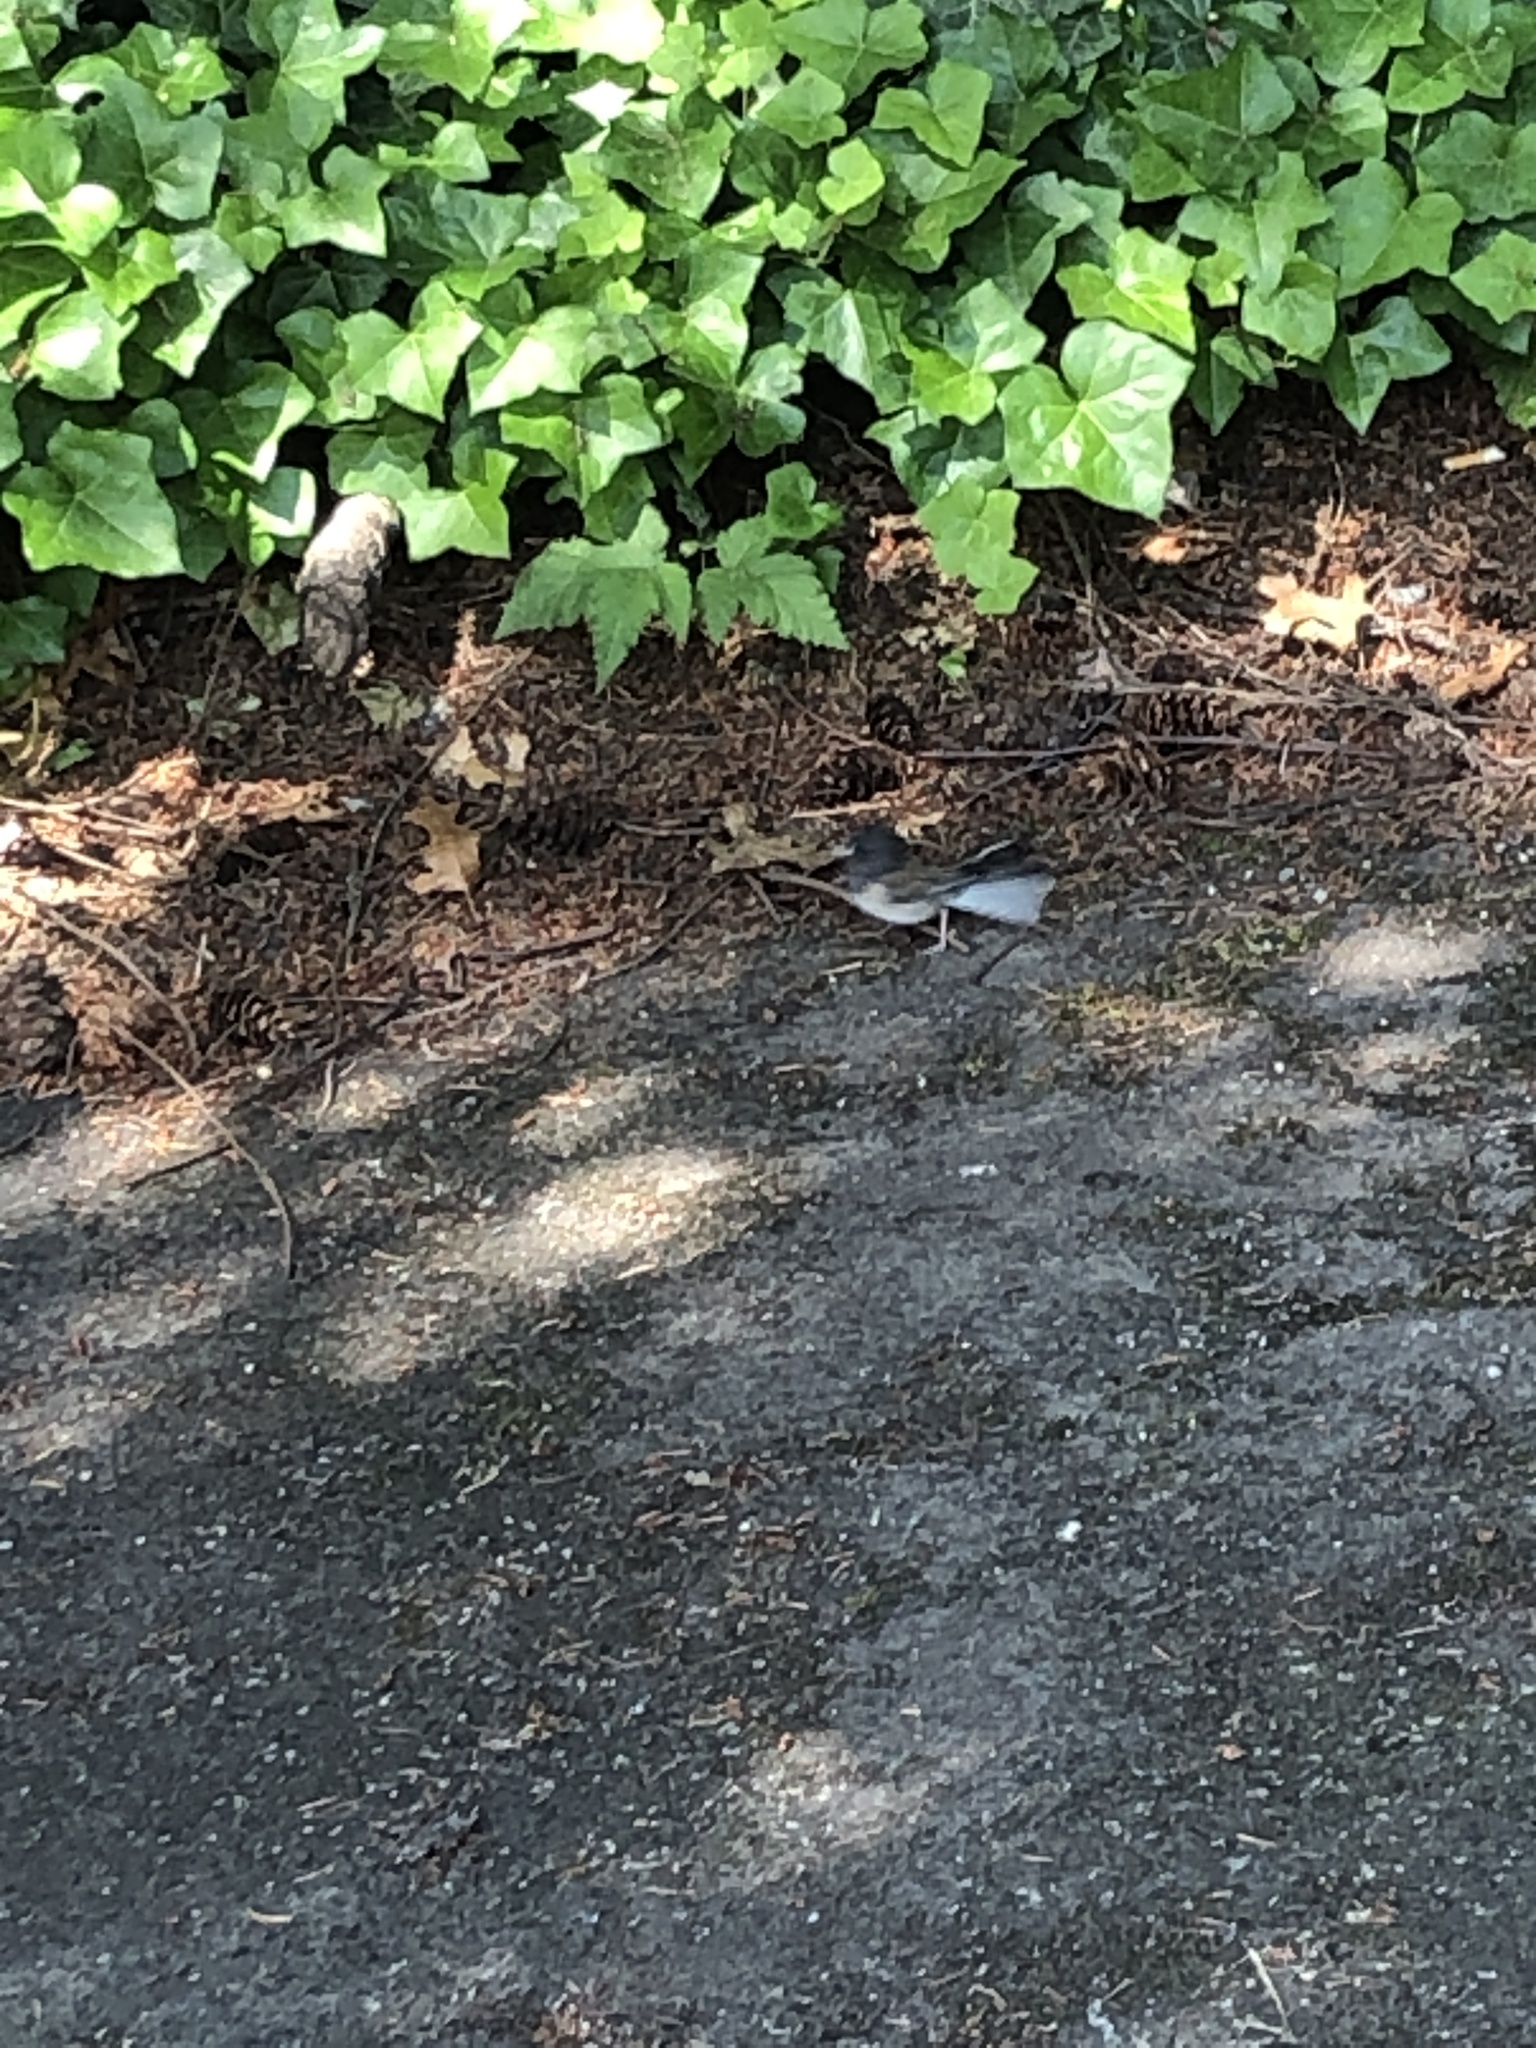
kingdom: Animalia
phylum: Chordata
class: Aves
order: Passeriformes
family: Passerellidae
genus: Junco
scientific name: Junco hyemalis
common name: Dark-eyed junco
